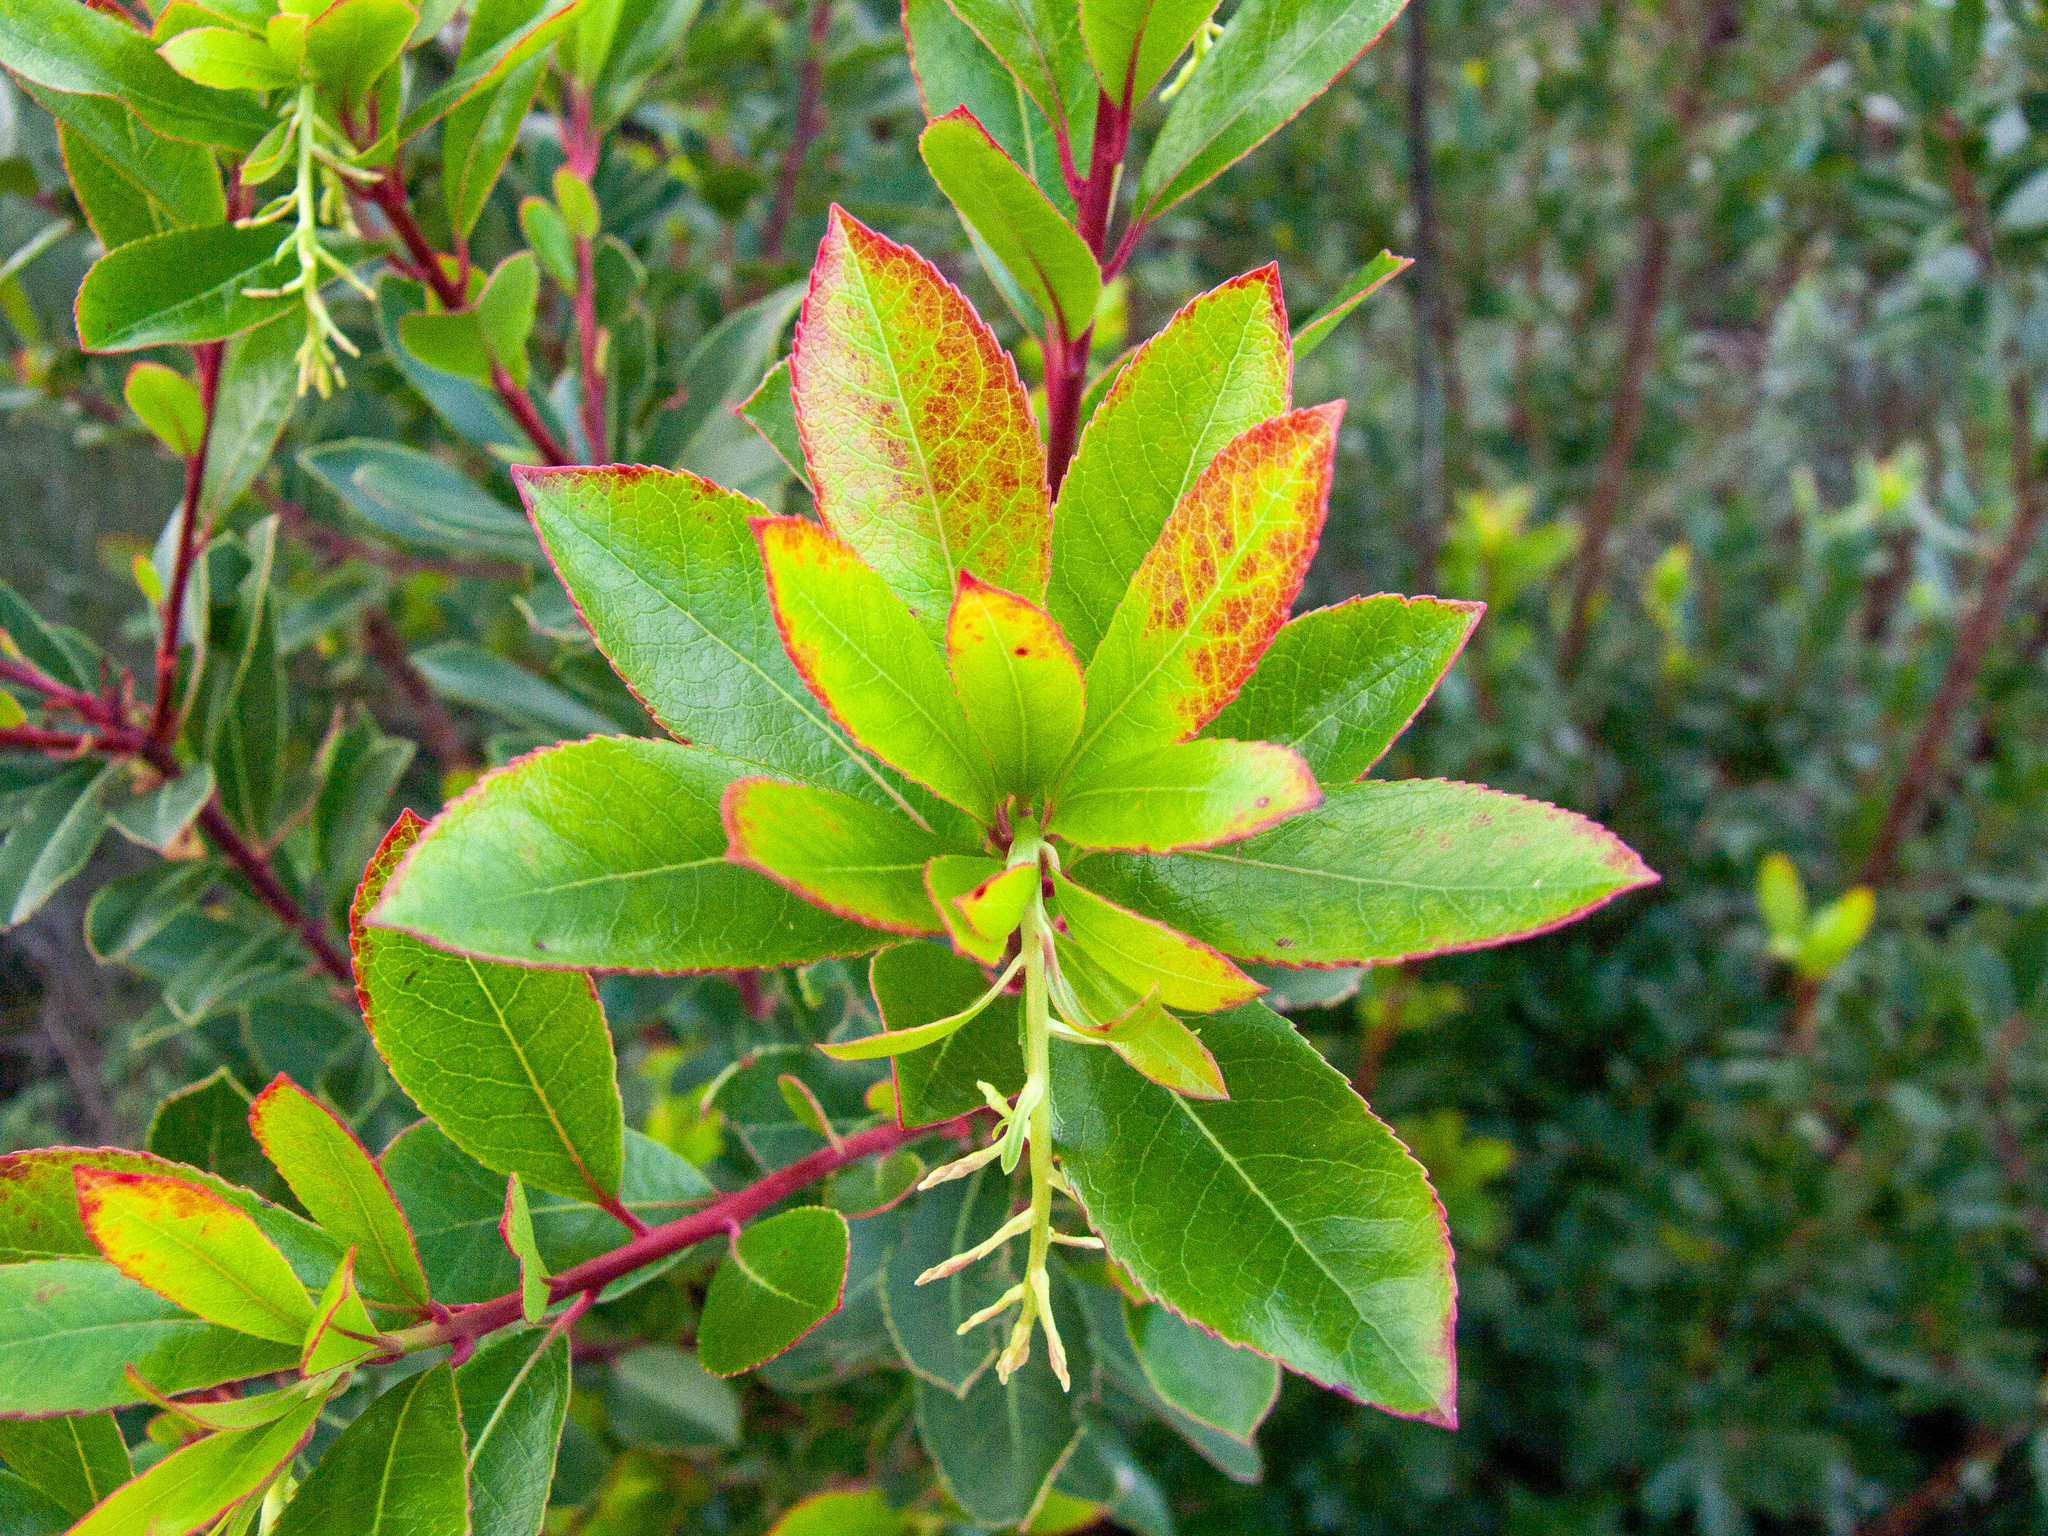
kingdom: Plantae
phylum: Tracheophyta
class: Magnoliopsida
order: Ericales
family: Ericaceae
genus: Arbutus
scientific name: Arbutus unedo
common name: Strawberry-tree
